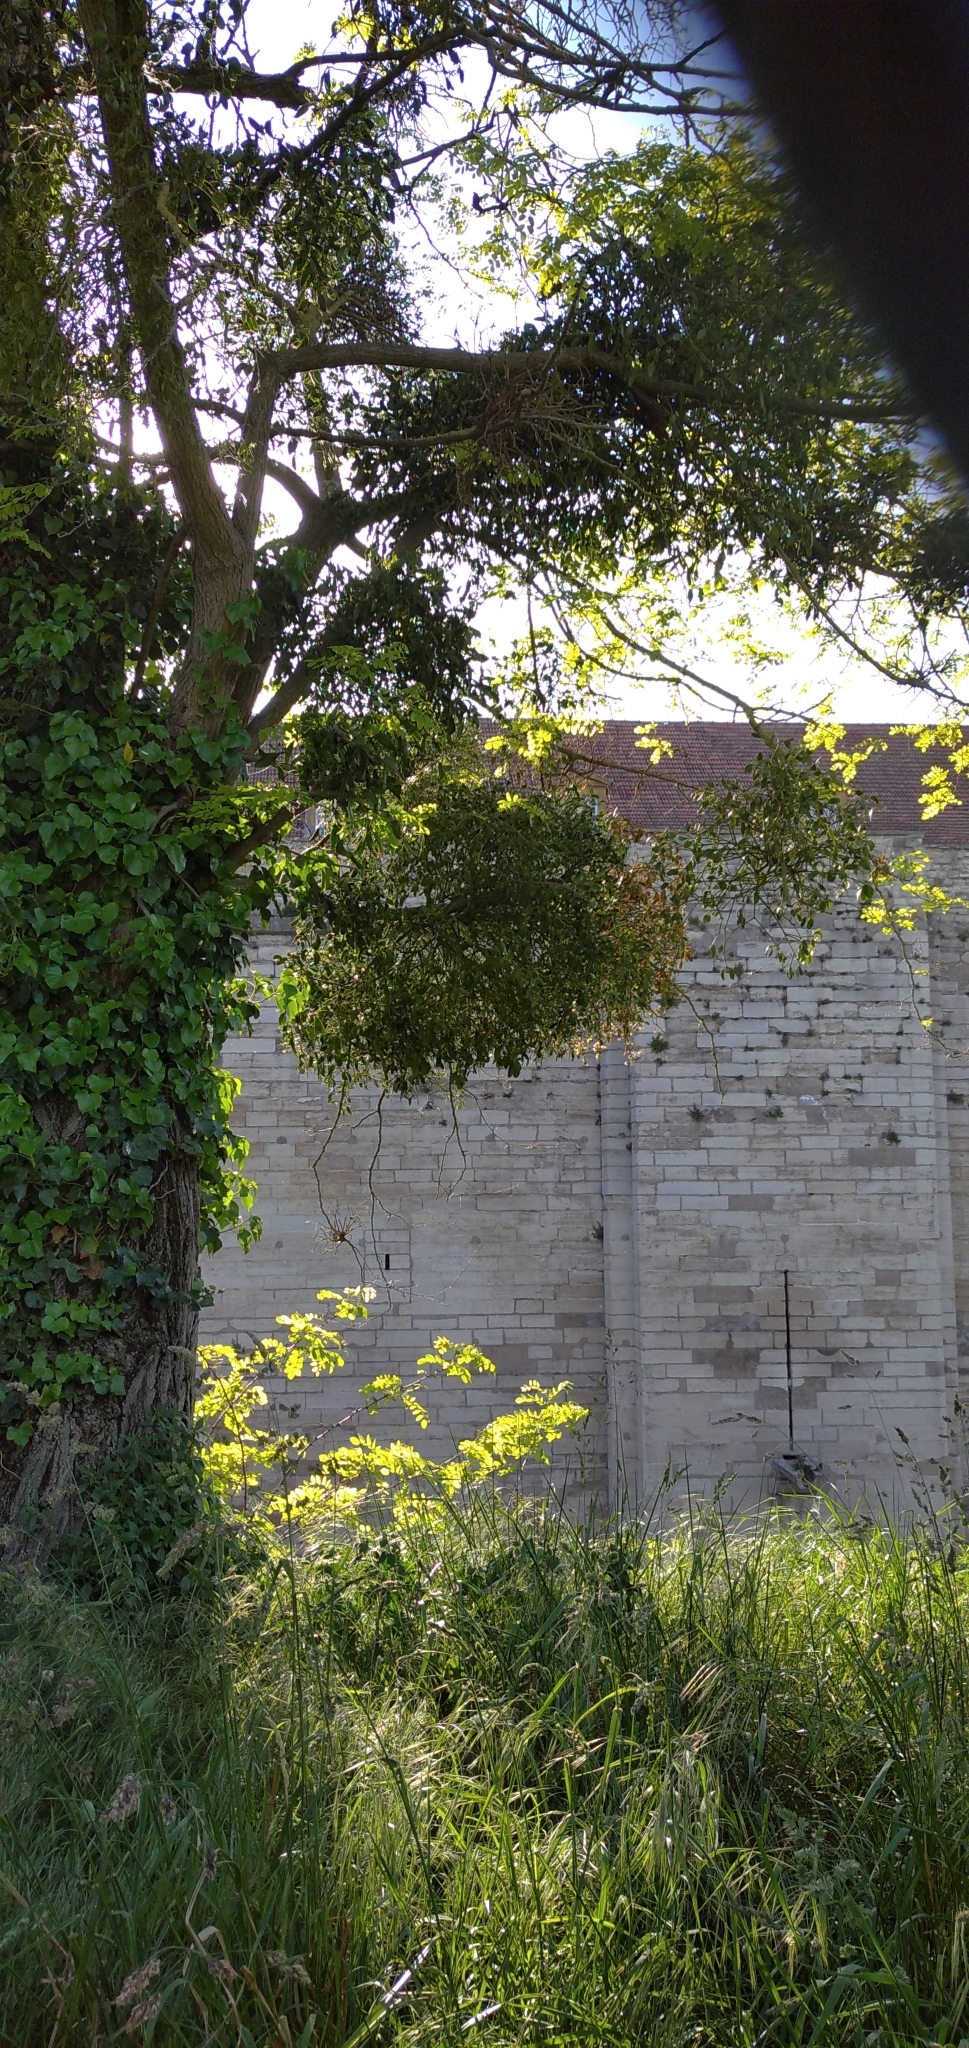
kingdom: Plantae
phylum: Tracheophyta
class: Magnoliopsida
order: Santalales
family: Viscaceae
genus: Viscum
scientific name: Viscum album
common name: Mistletoe
